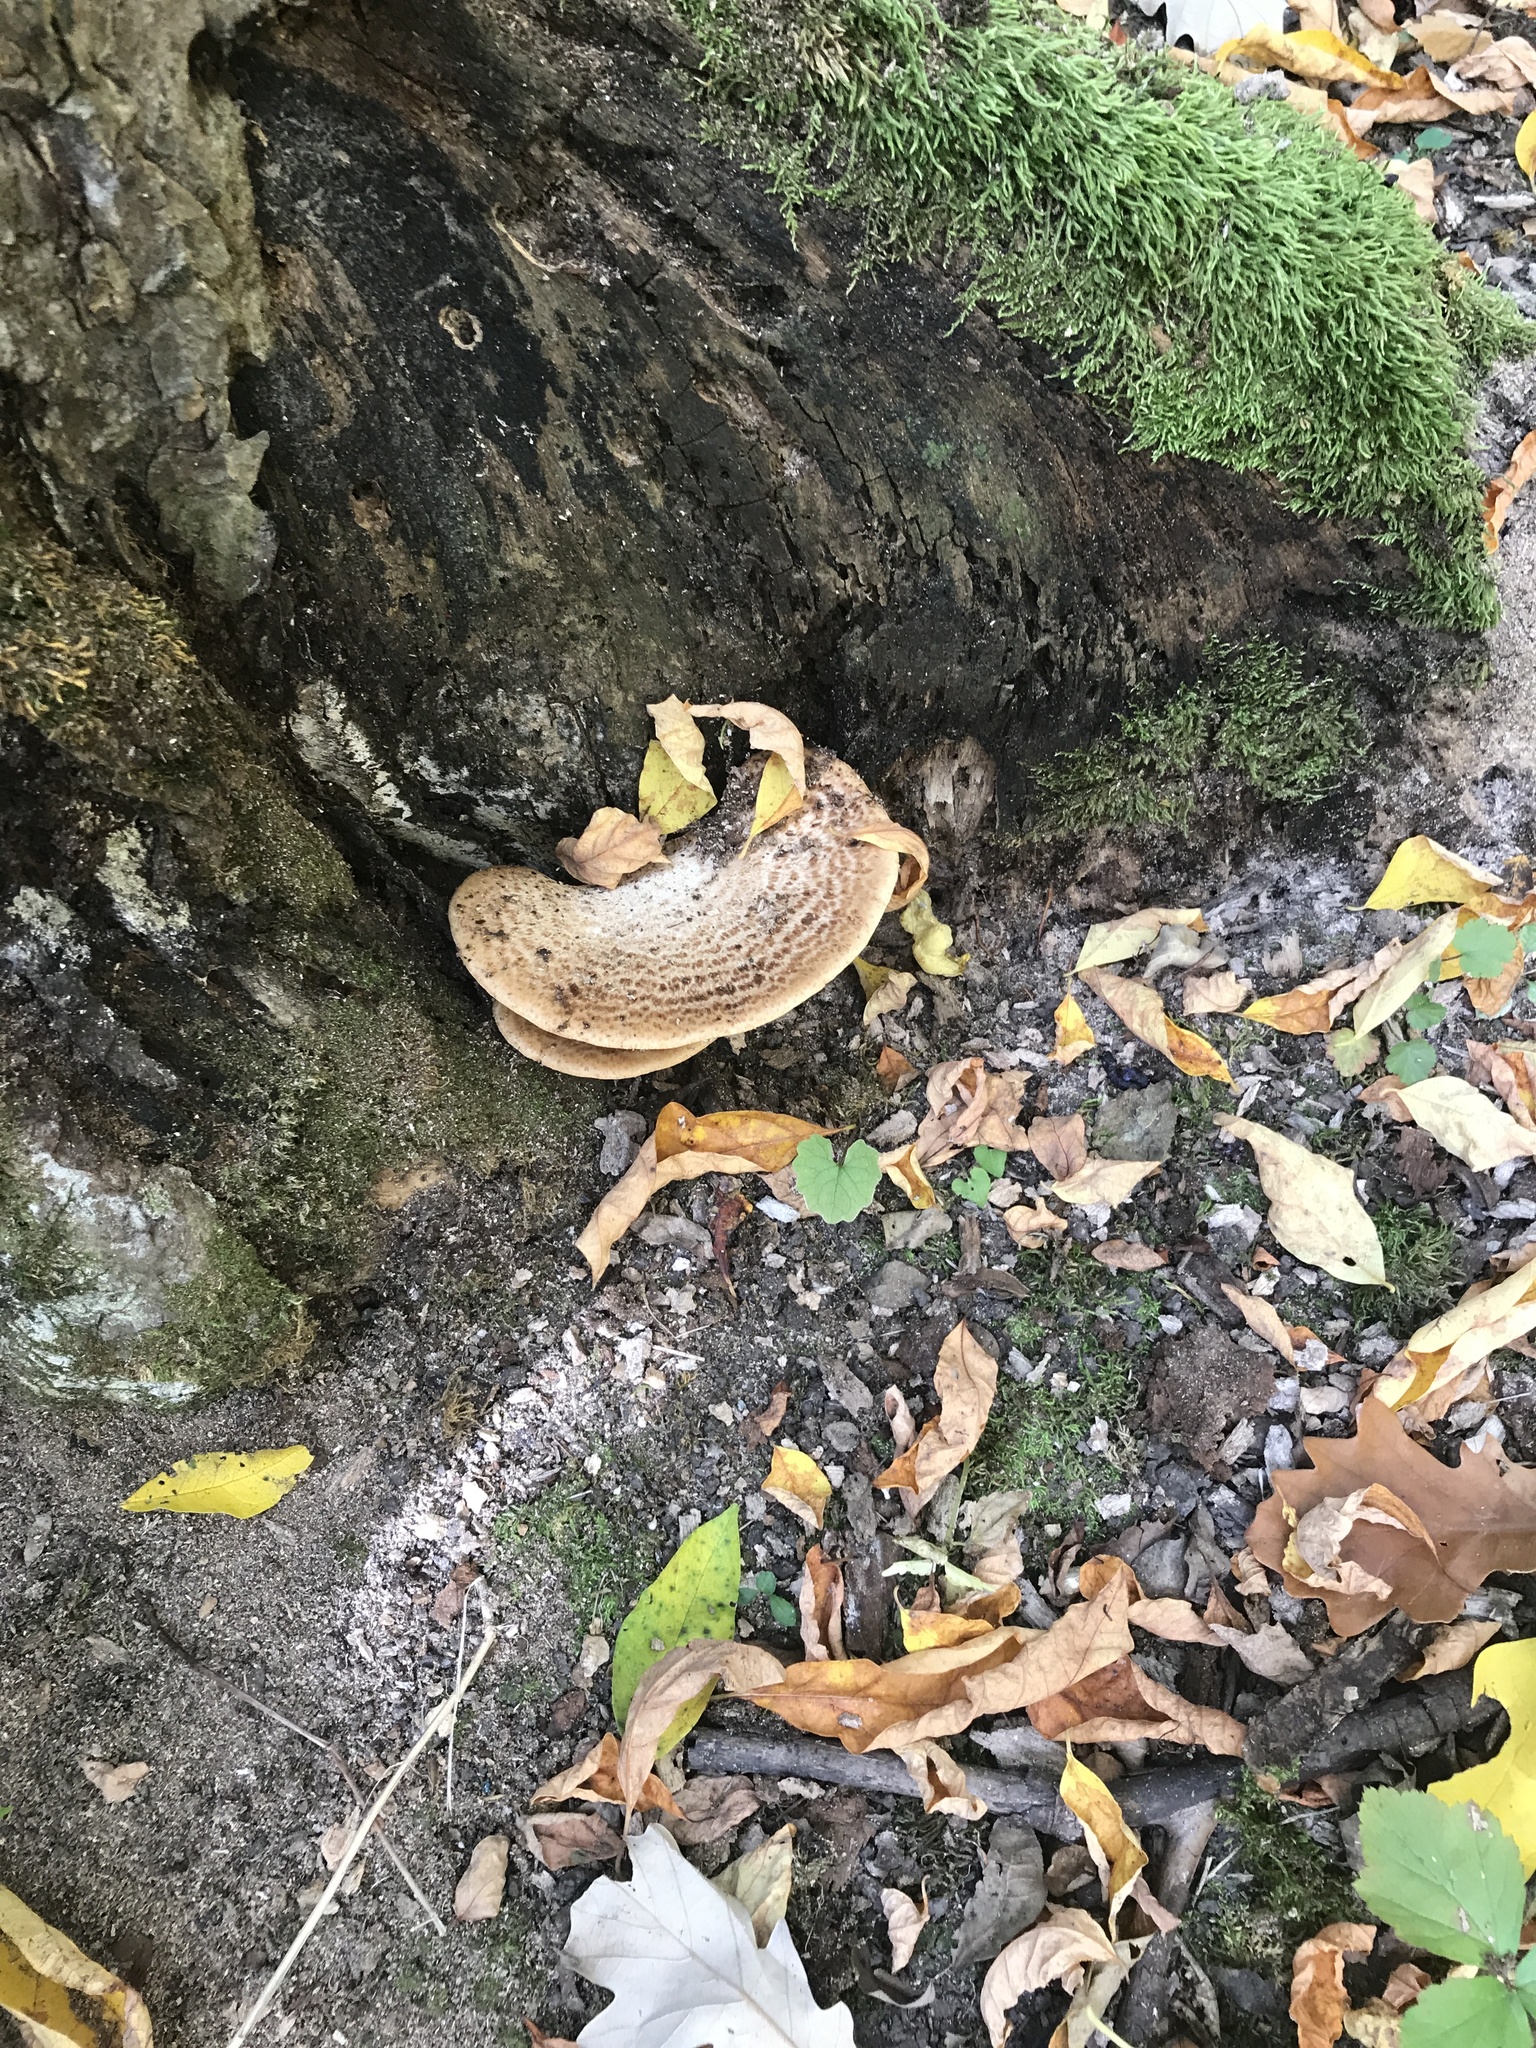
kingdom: Fungi
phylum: Basidiomycota
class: Agaricomycetes
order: Polyporales
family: Polyporaceae
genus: Cerioporus
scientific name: Cerioporus squamosus
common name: Dryad's saddle
